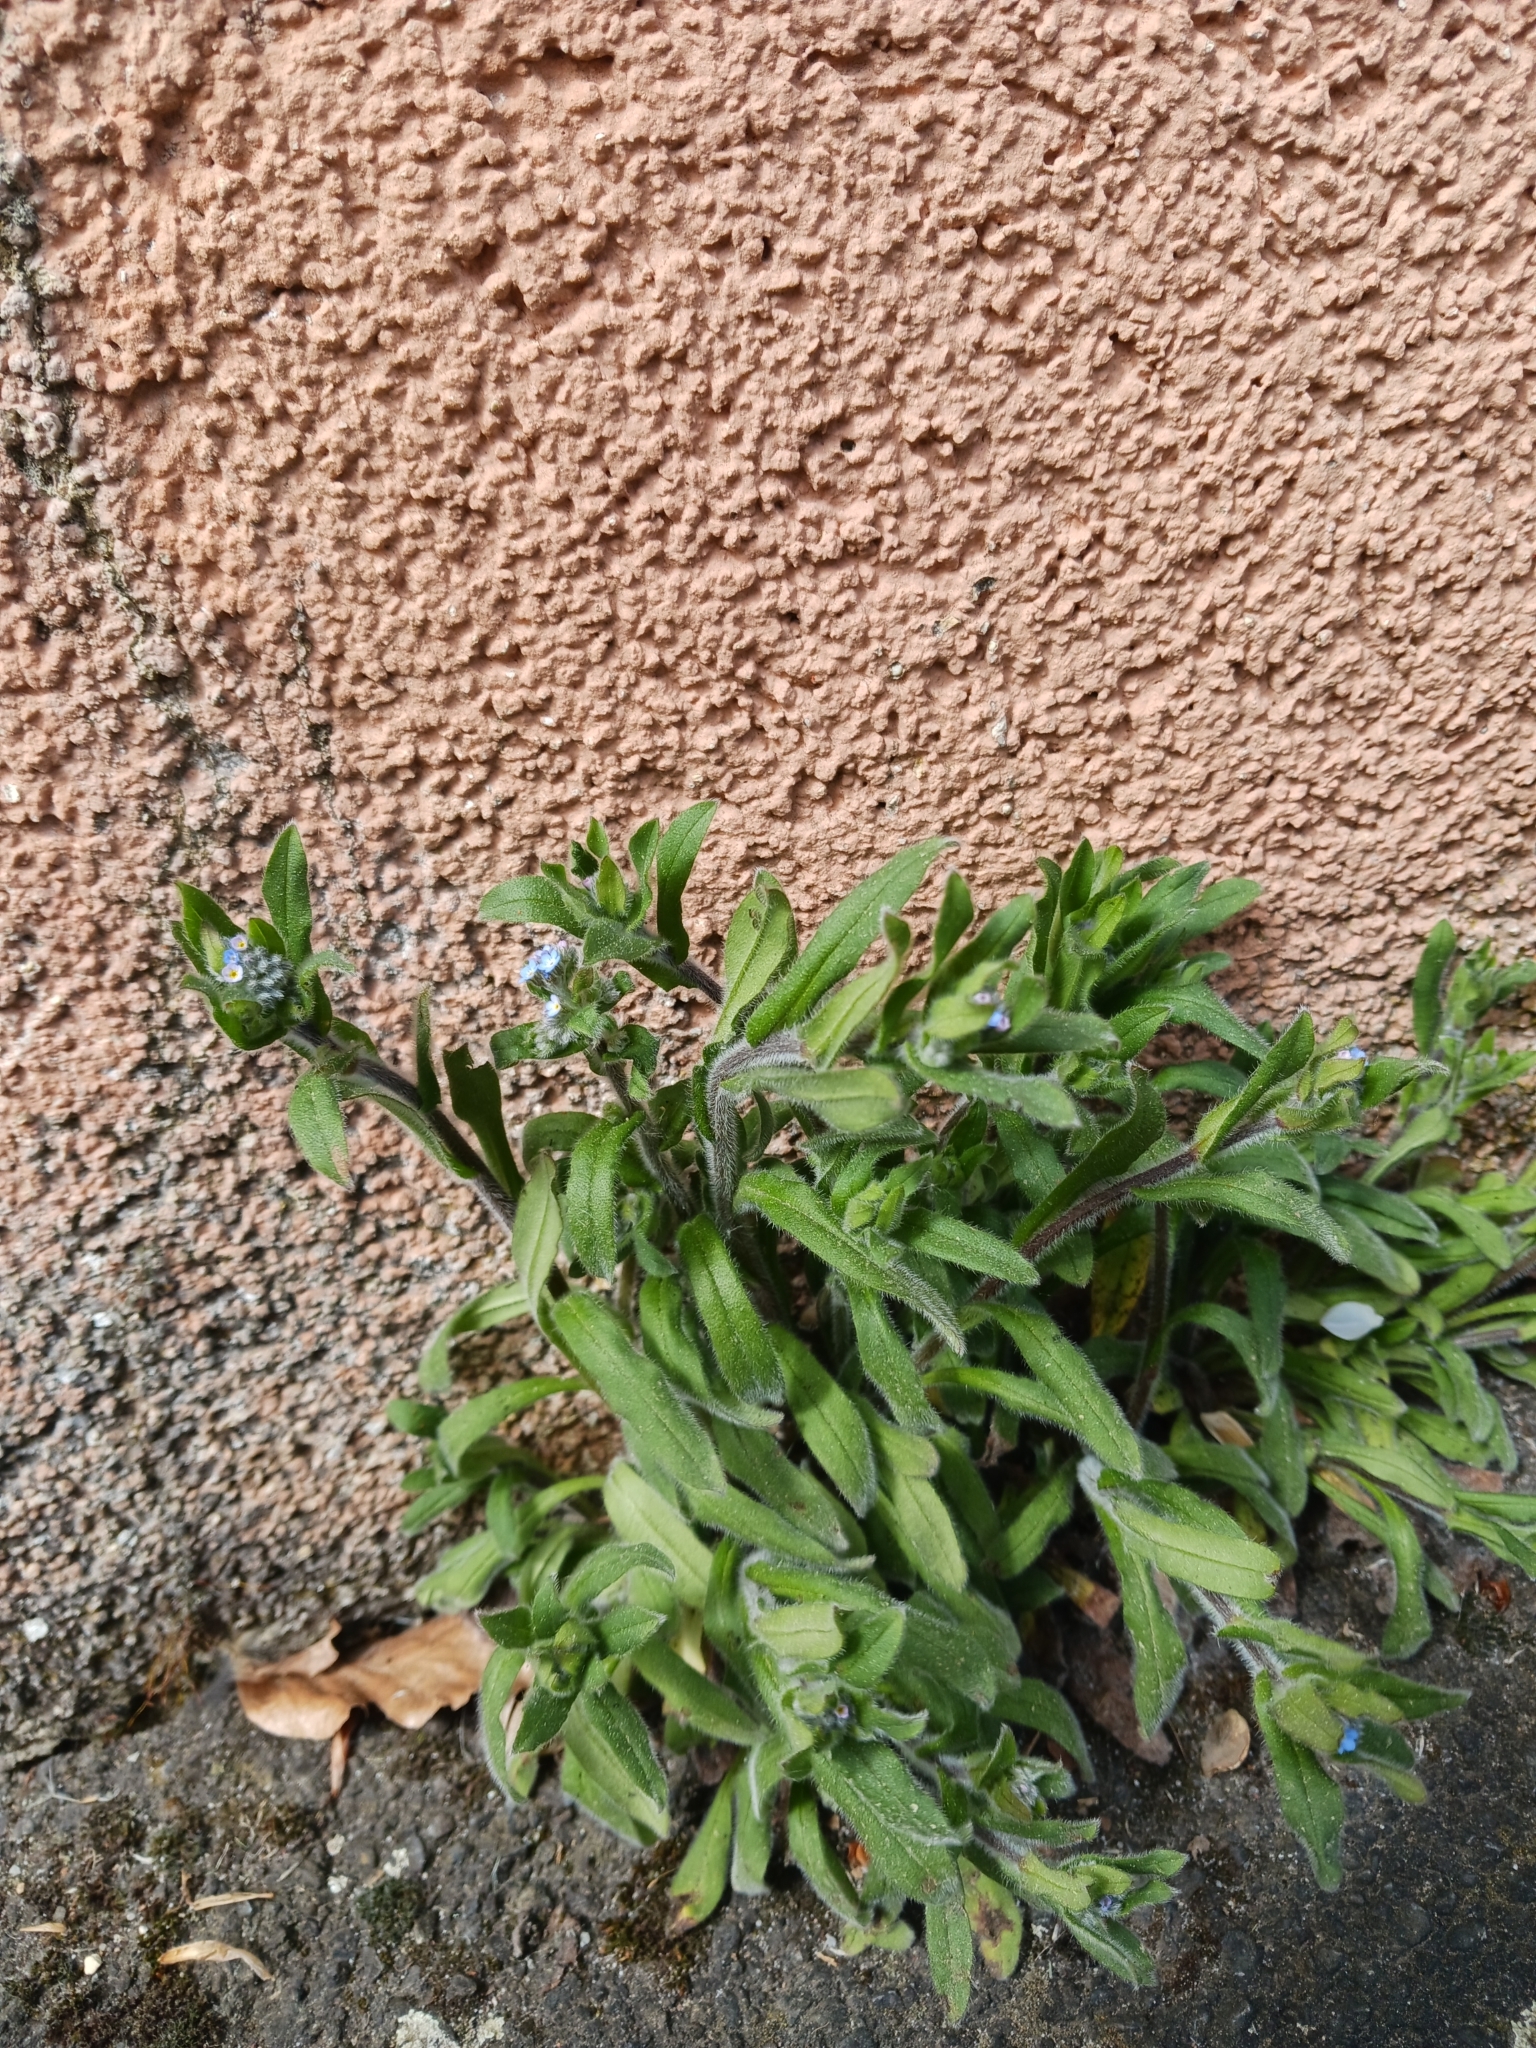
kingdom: Plantae
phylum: Tracheophyta
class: Magnoliopsida
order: Boraginales
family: Boraginaceae
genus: Myosotis
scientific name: Myosotis arvensis
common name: Field forget-me-not
